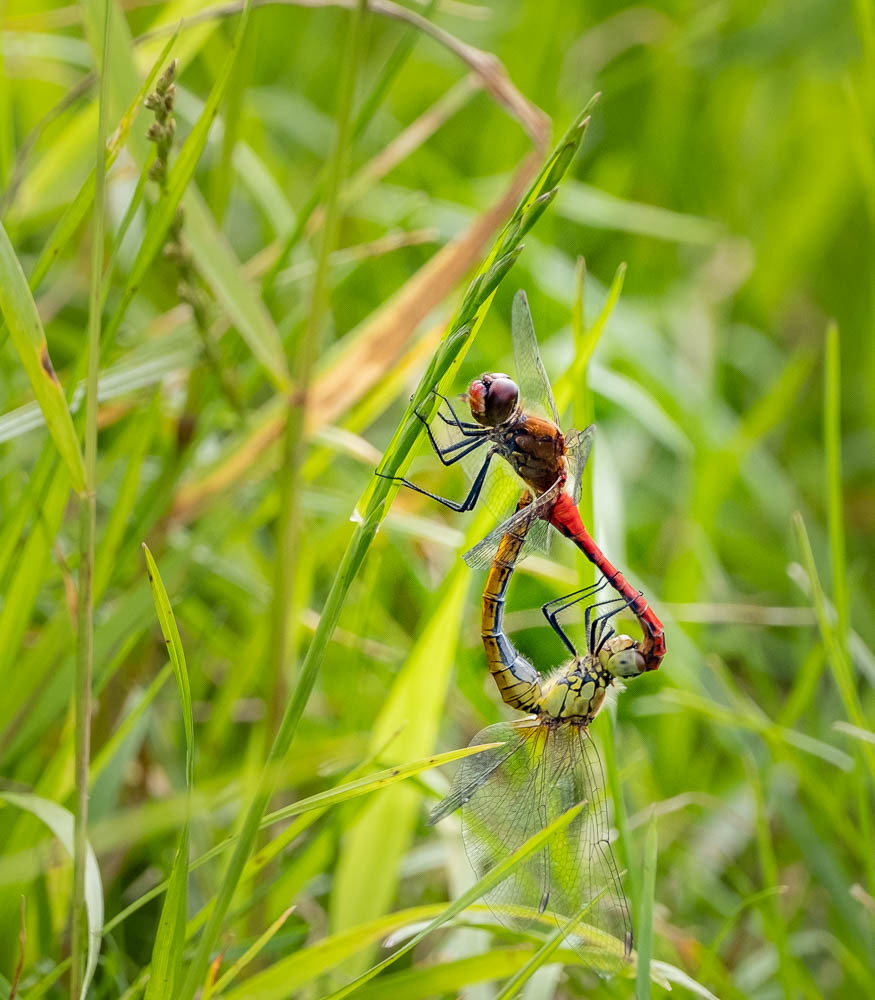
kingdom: Animalia
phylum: Arthropoda
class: Insecta
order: Odonata
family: Libellulidae
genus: Sympetrum
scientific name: Sympetrum sanguineum
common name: Ruddy darter
